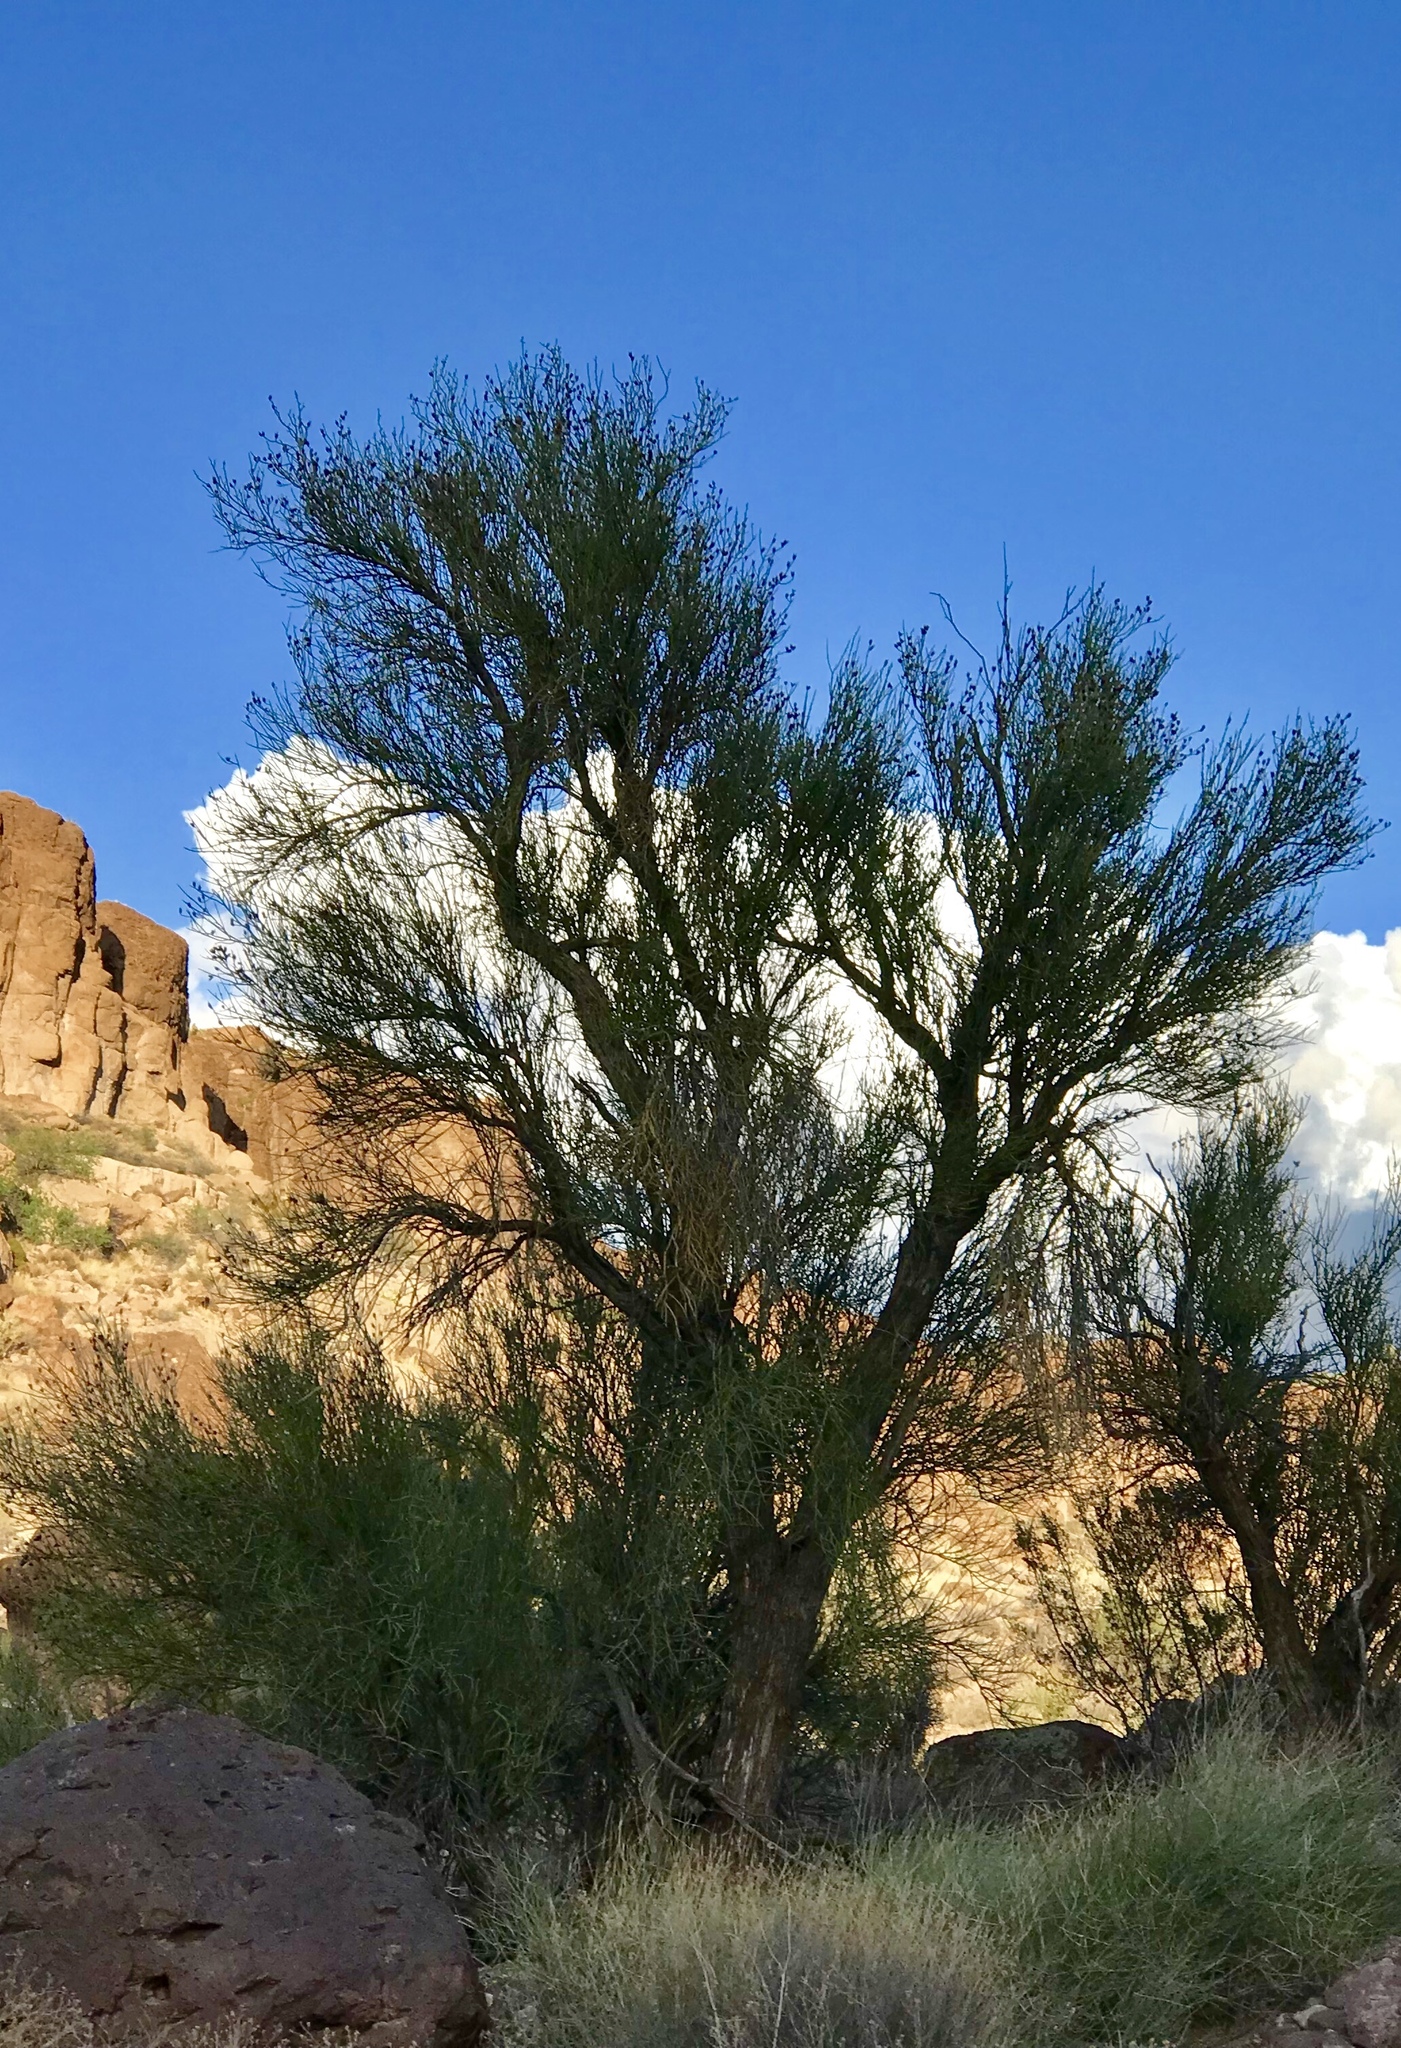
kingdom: Plantae
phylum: Tracheophyta
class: Magnoliopsida
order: Celastrales
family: Celastraceae
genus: Canotia
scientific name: Canotia holacantha
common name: Crucifixion thorns
